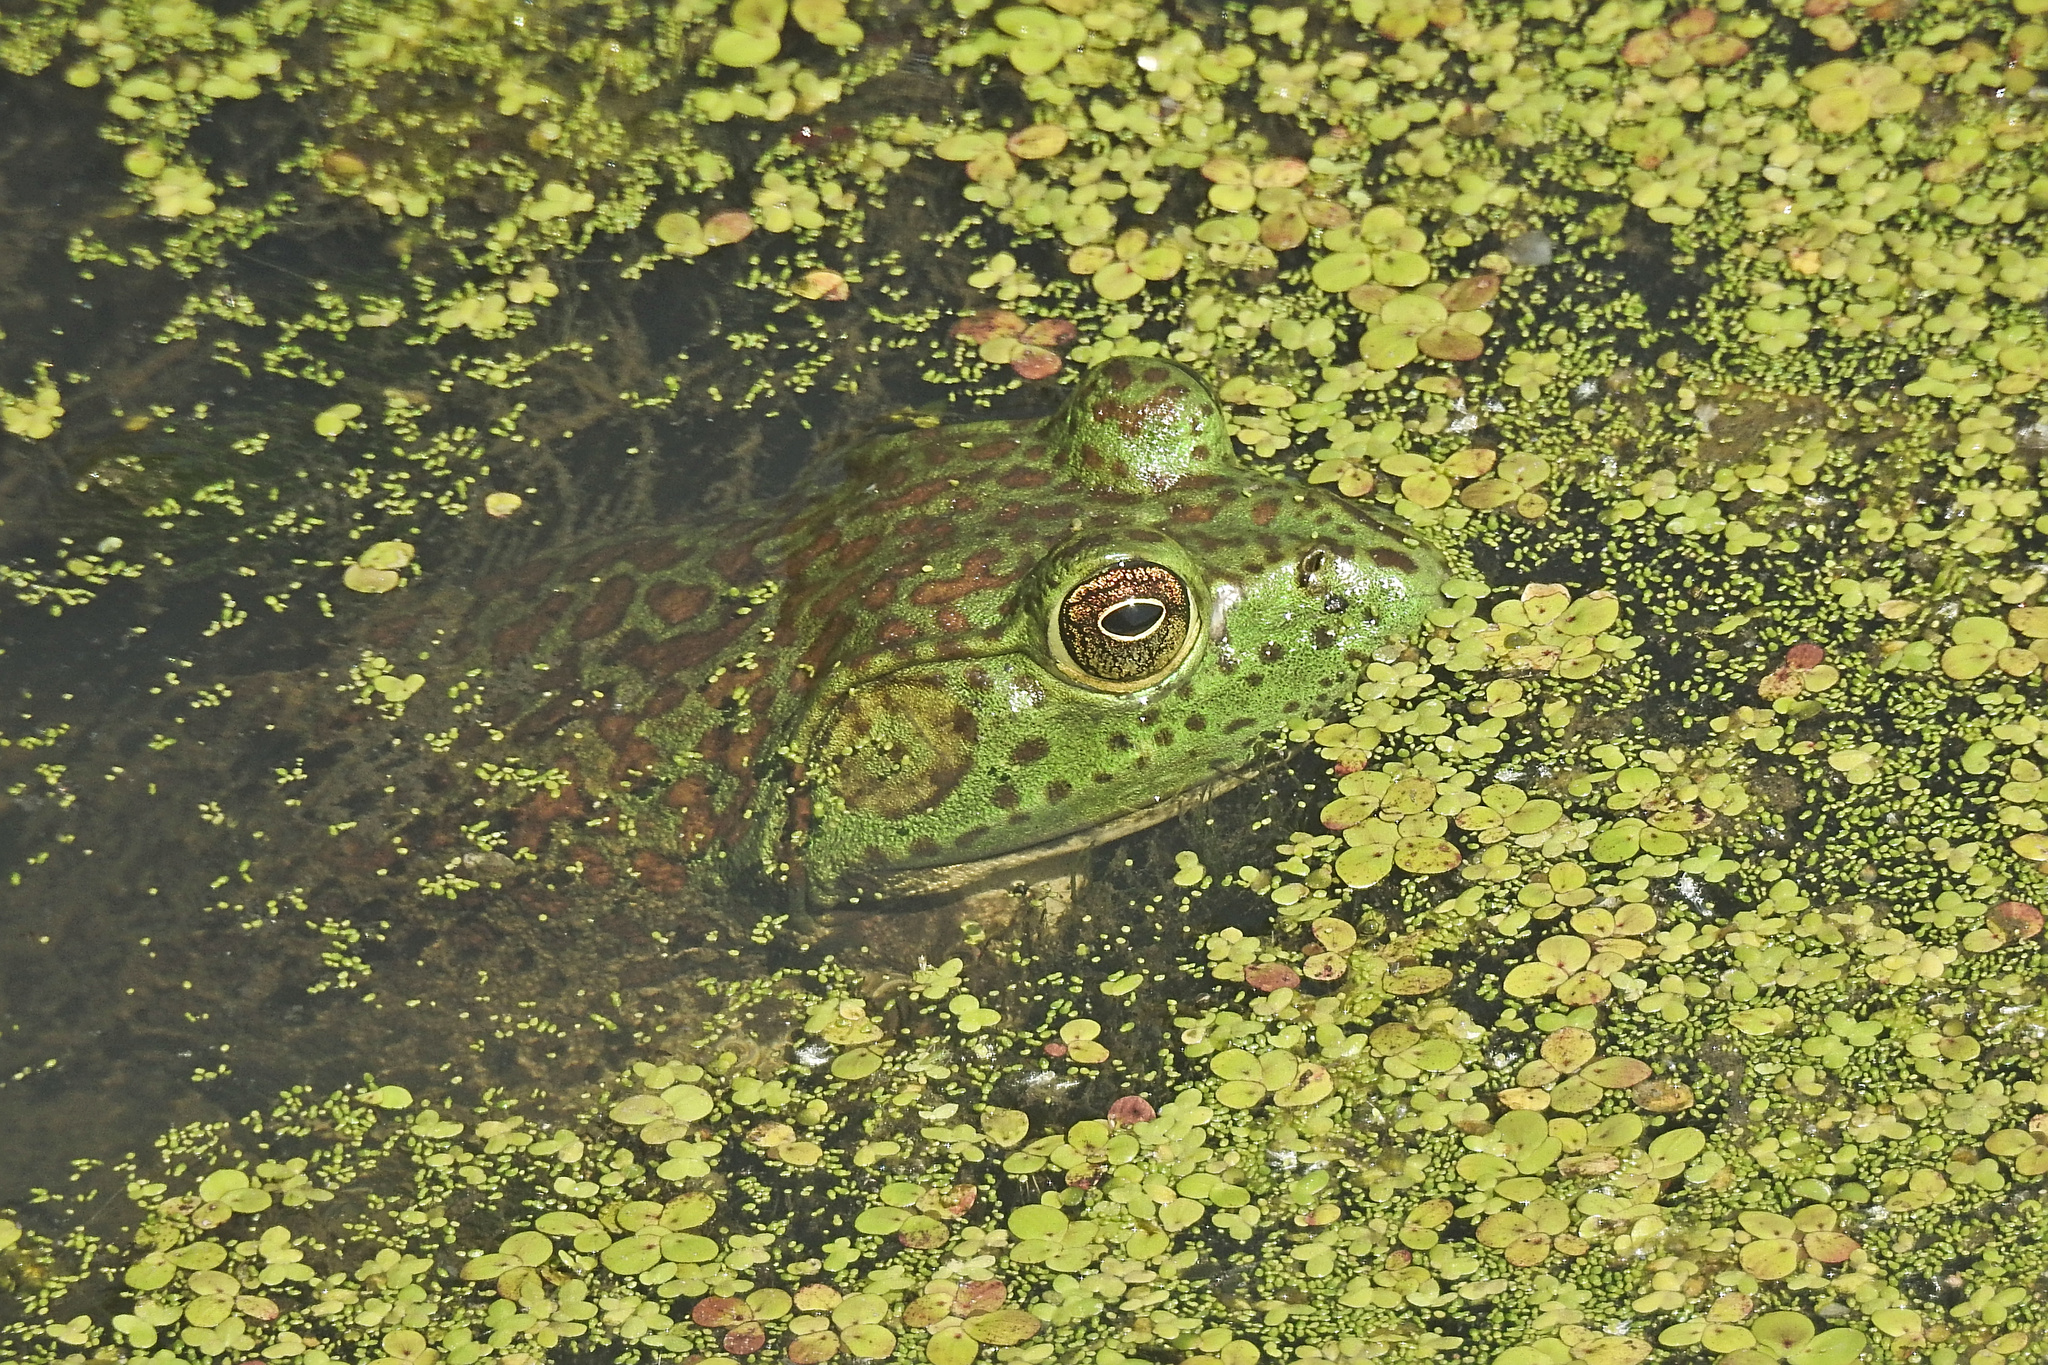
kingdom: Animalia
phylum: Chordata
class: Amphibia
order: Anura
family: Ranidae
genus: Lithobates
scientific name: Lithobates catesbeianus
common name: American bullfrog
